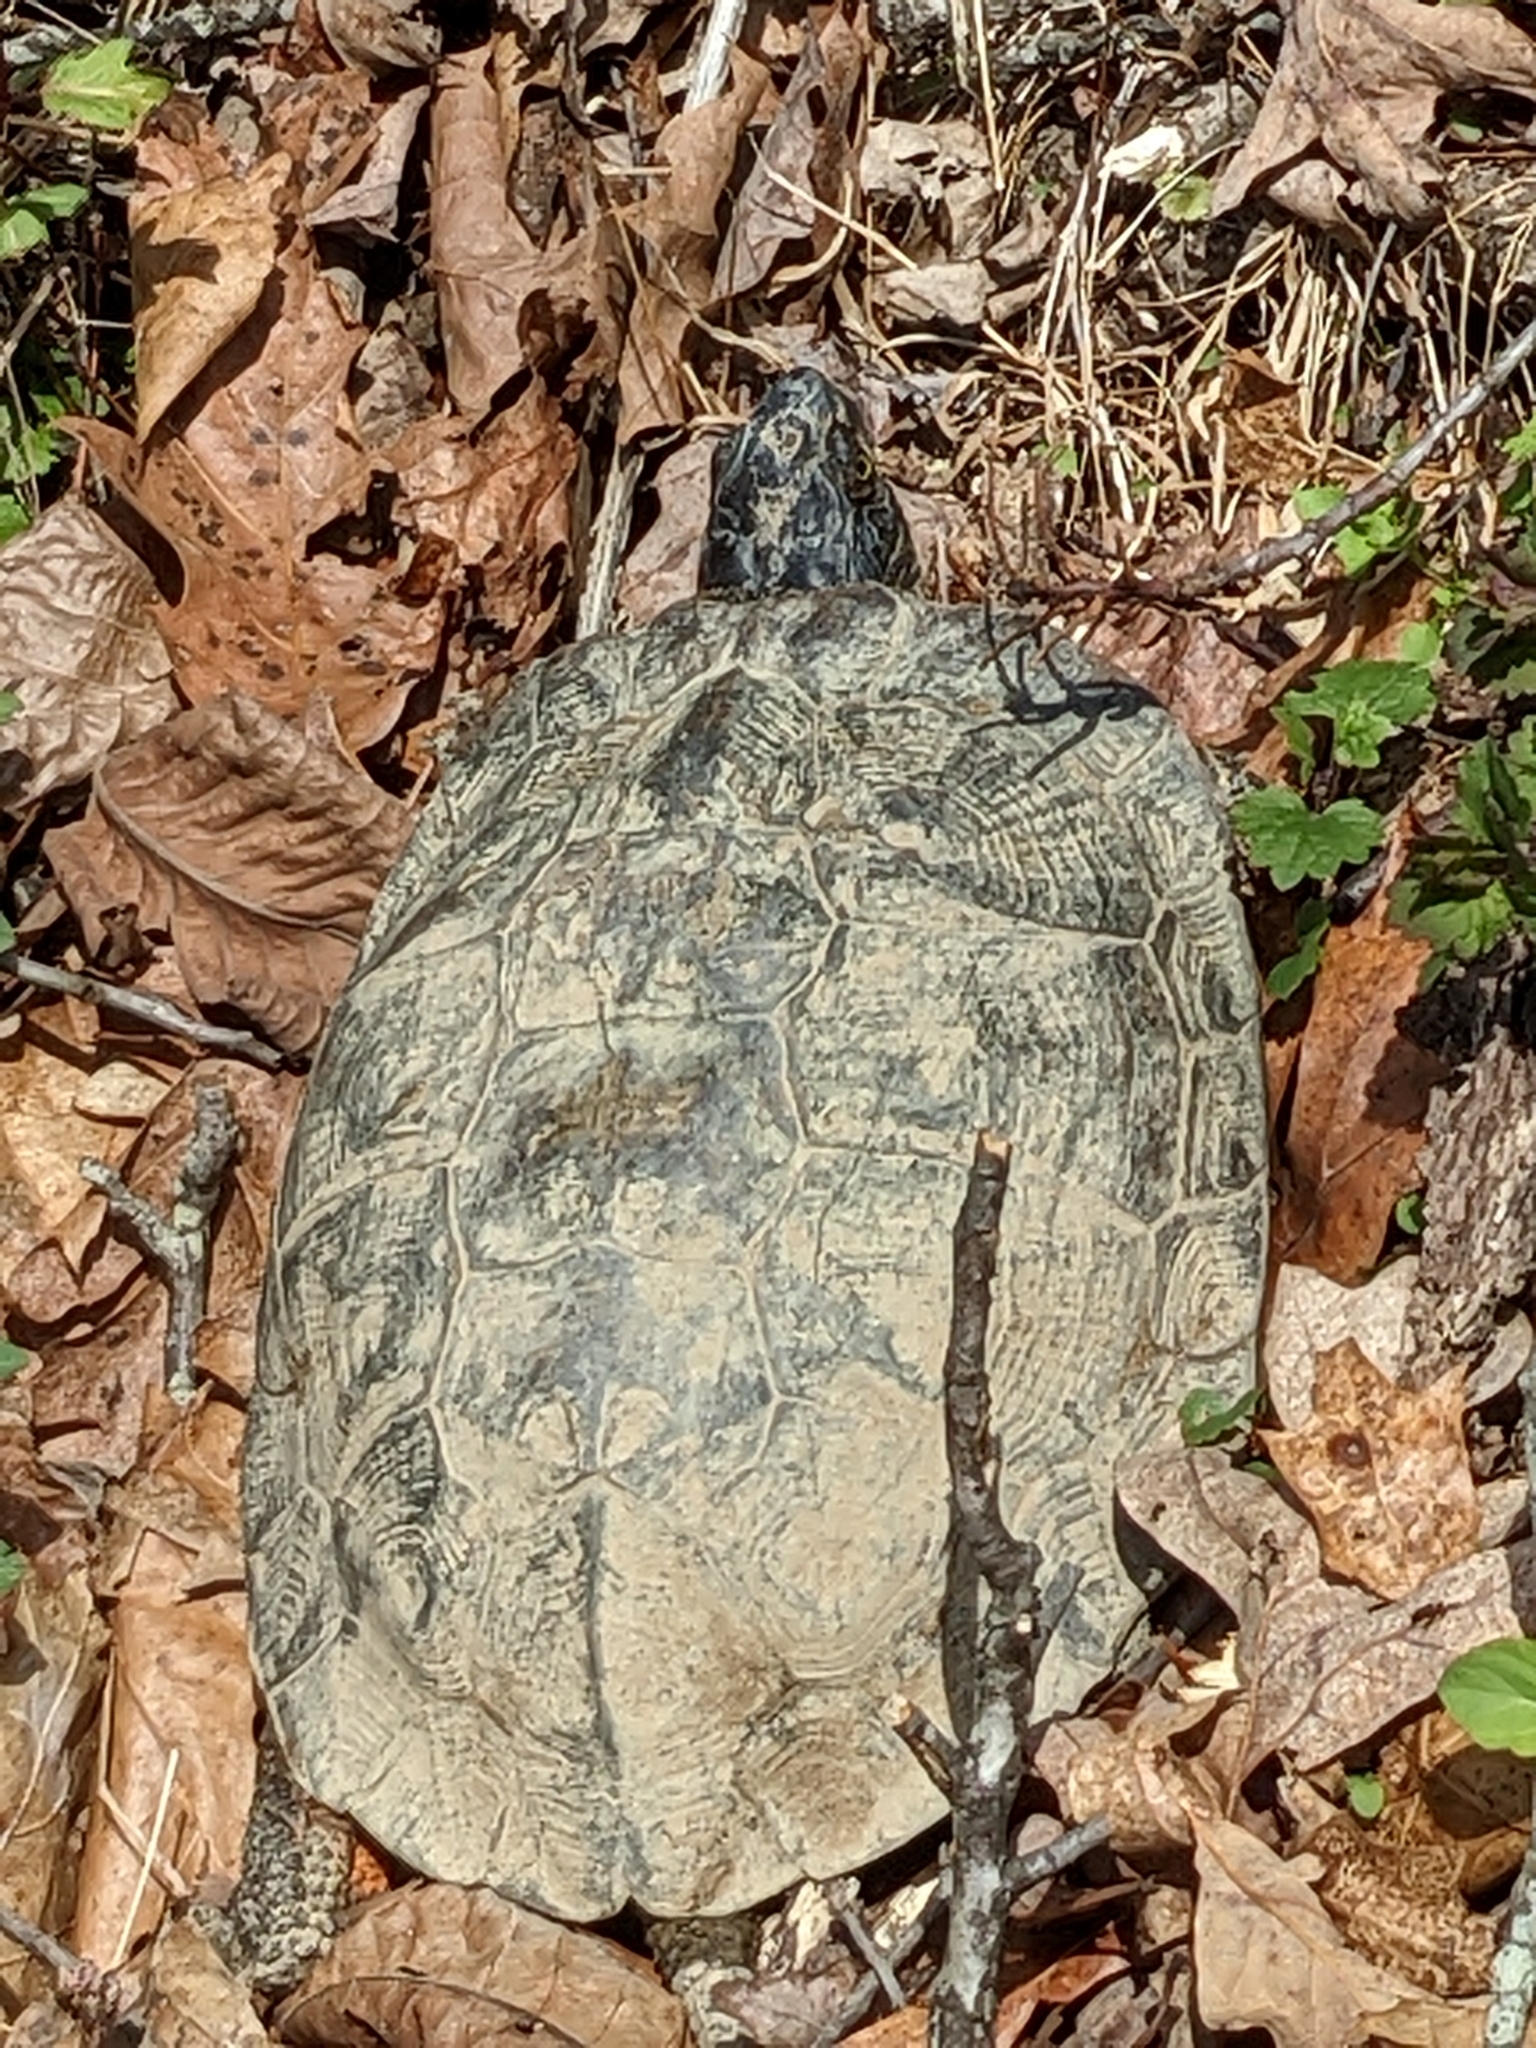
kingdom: Animalia
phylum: Chordata
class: Testudines
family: Emydidae
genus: Glyptemys
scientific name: Glyptemys insculpta
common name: Wood turtle
